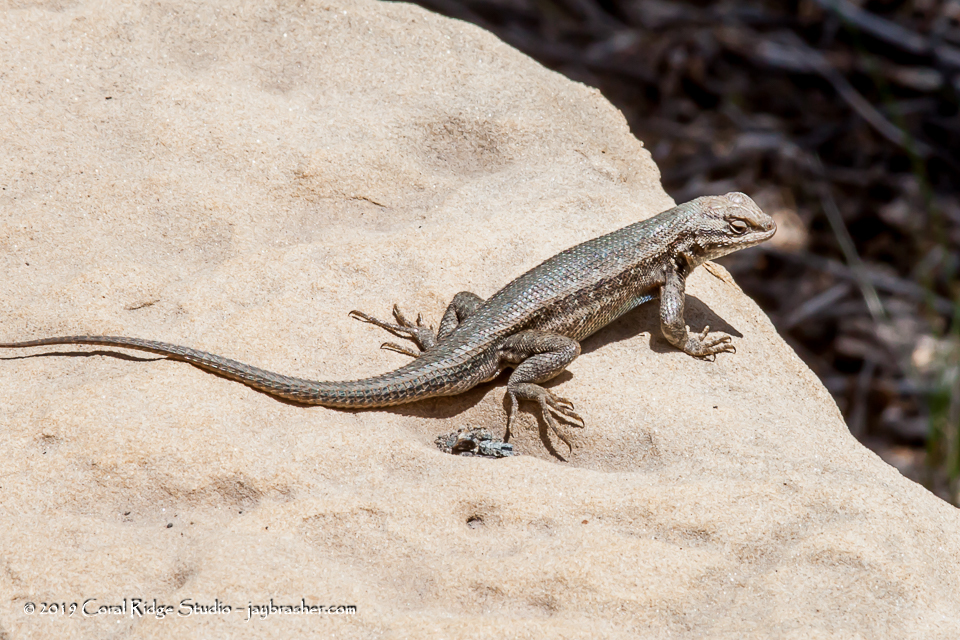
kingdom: Animalia
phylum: Chordata
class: Squamata
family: Phrynosomatidae
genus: Sceloporus
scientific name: Sceloporus graciosus
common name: Sagebrush lizard
